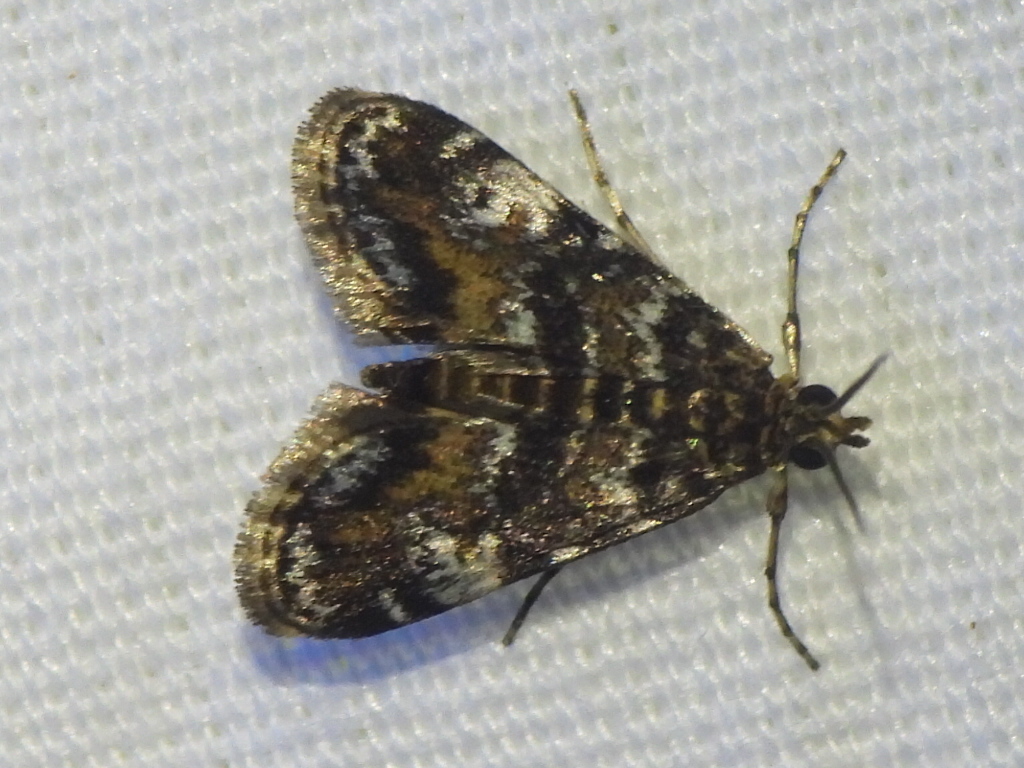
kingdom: Animalia
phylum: Arthropoda
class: Insecta
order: Lepidoptera
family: Crambidae
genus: Elophila
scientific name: Elophila obliteralis
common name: Waterlily leafcutter moth
